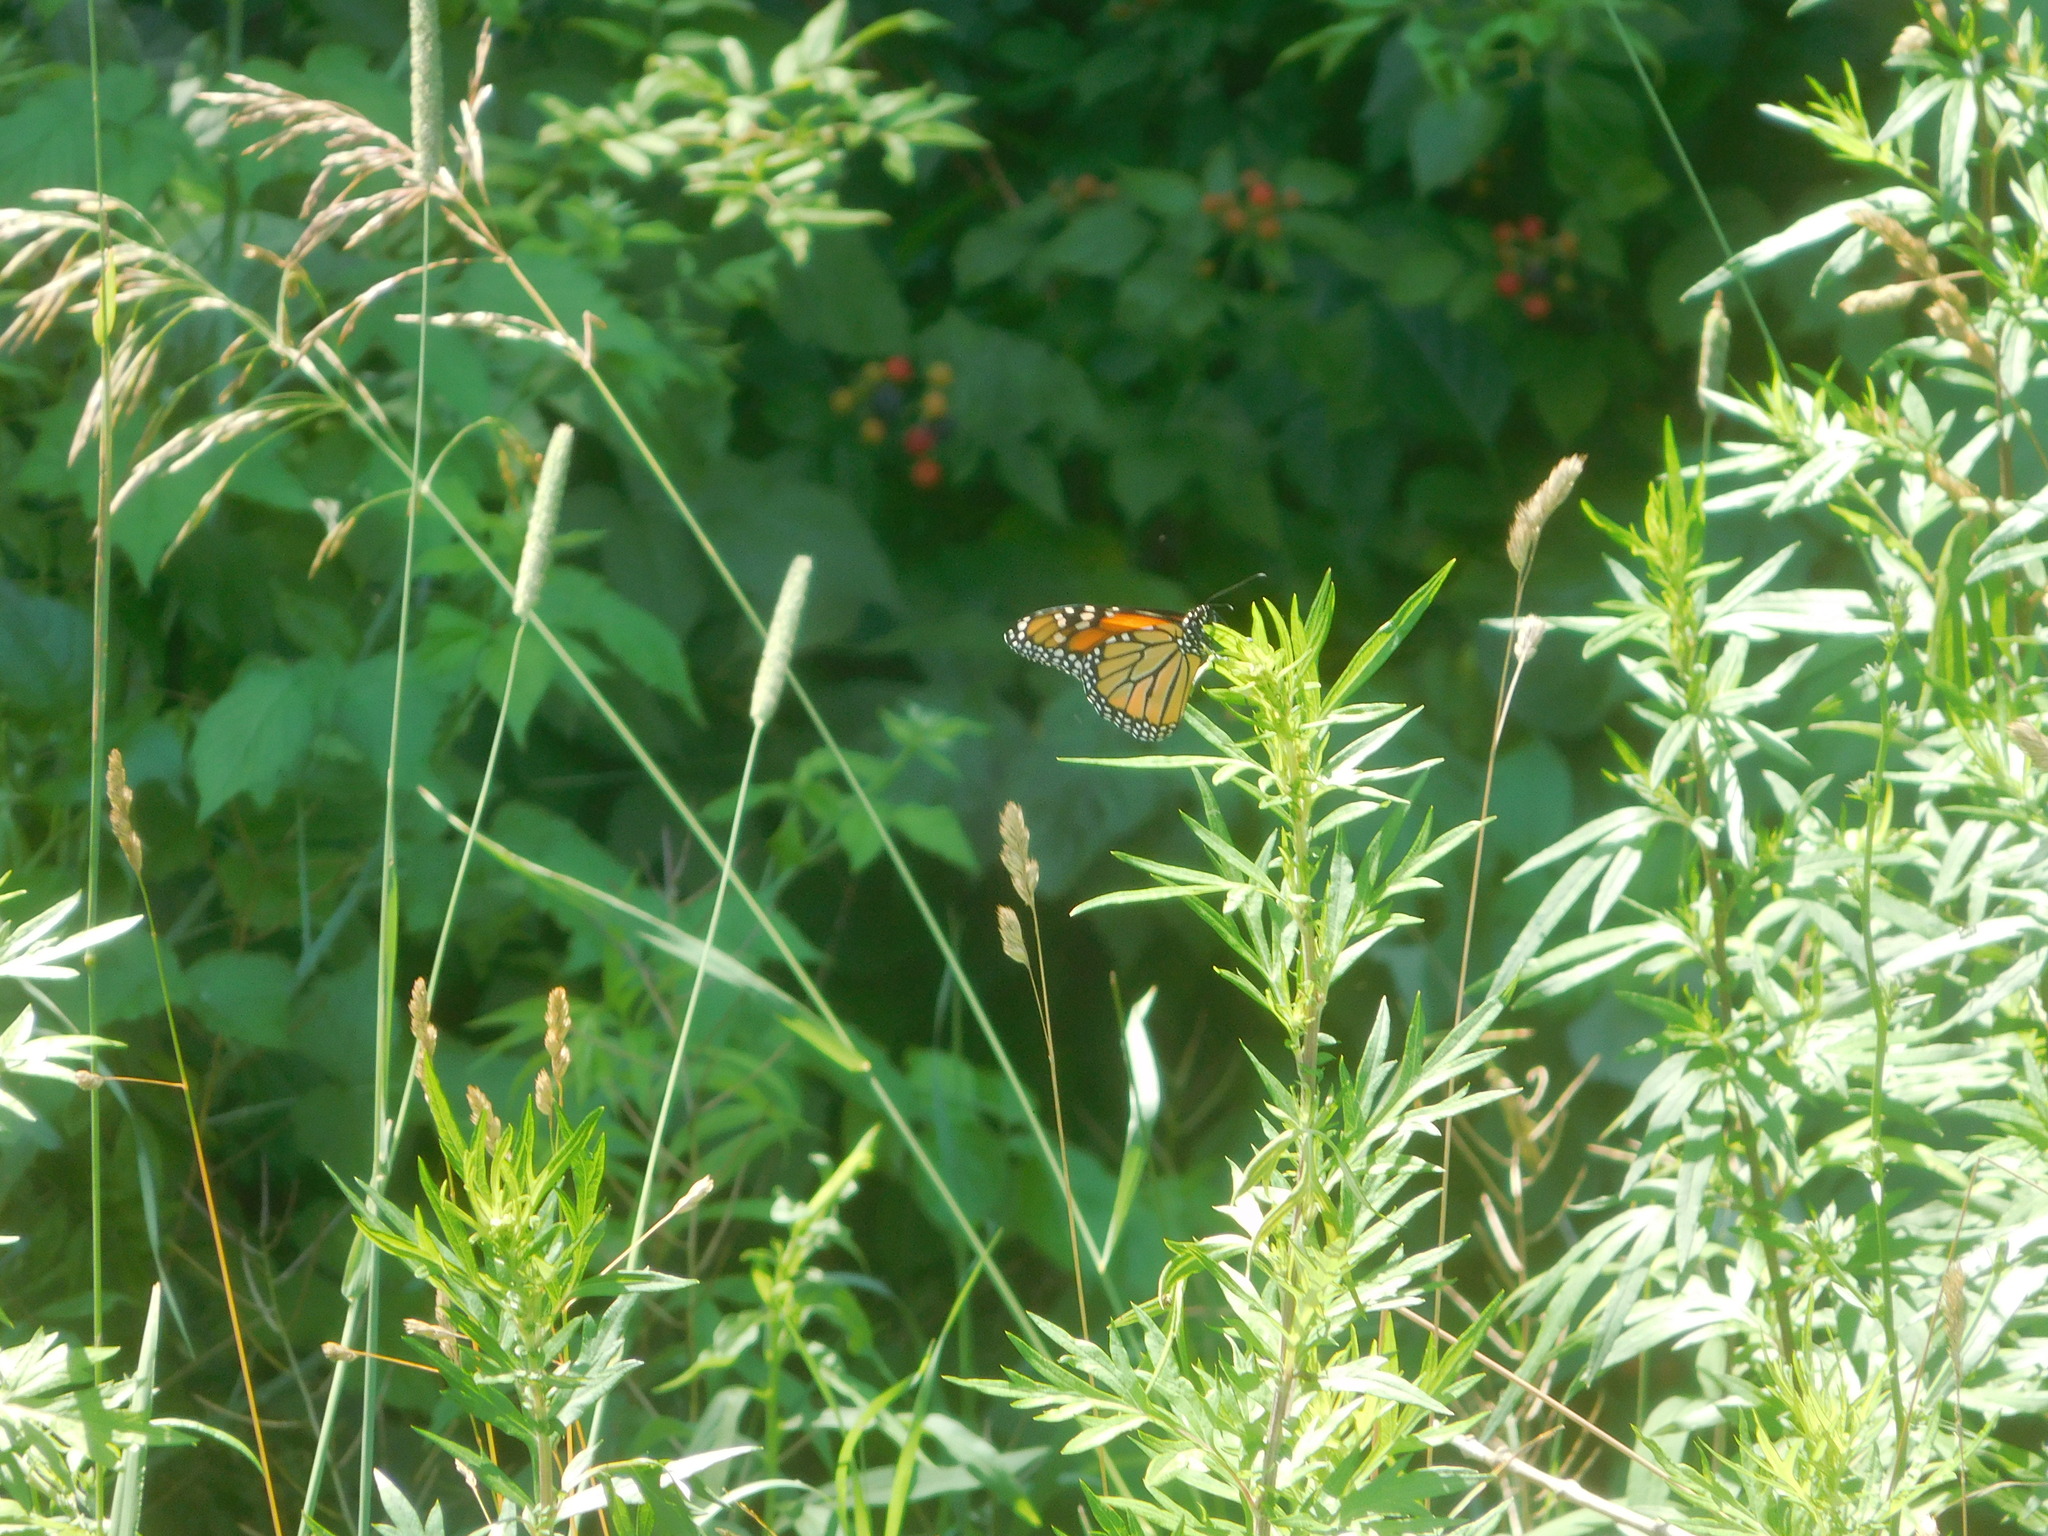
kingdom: Animalia
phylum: Arthropoda
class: Insecta
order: Lepidoptera
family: Nymphalidae
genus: Danaus
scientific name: Danaus plexippus
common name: Monarch
